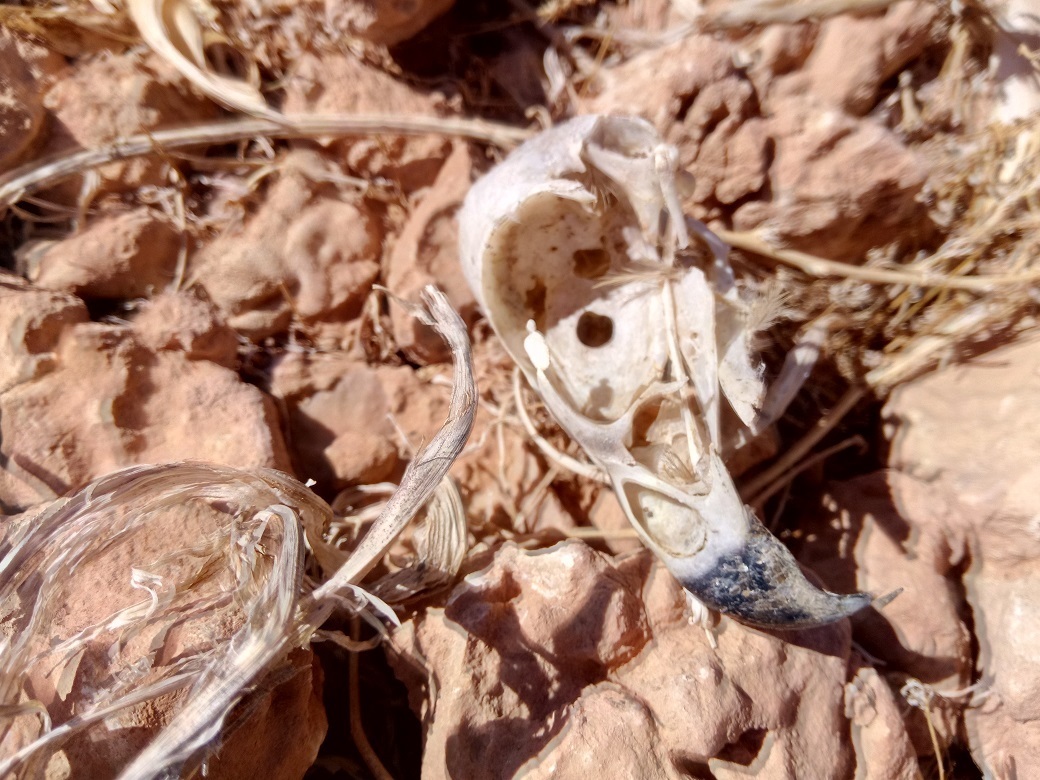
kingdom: Animalia
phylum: Chordata
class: Aves
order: Accipitriformes
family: Accipitridae
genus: Milvus
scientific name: Milvus migrans
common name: Black kite
